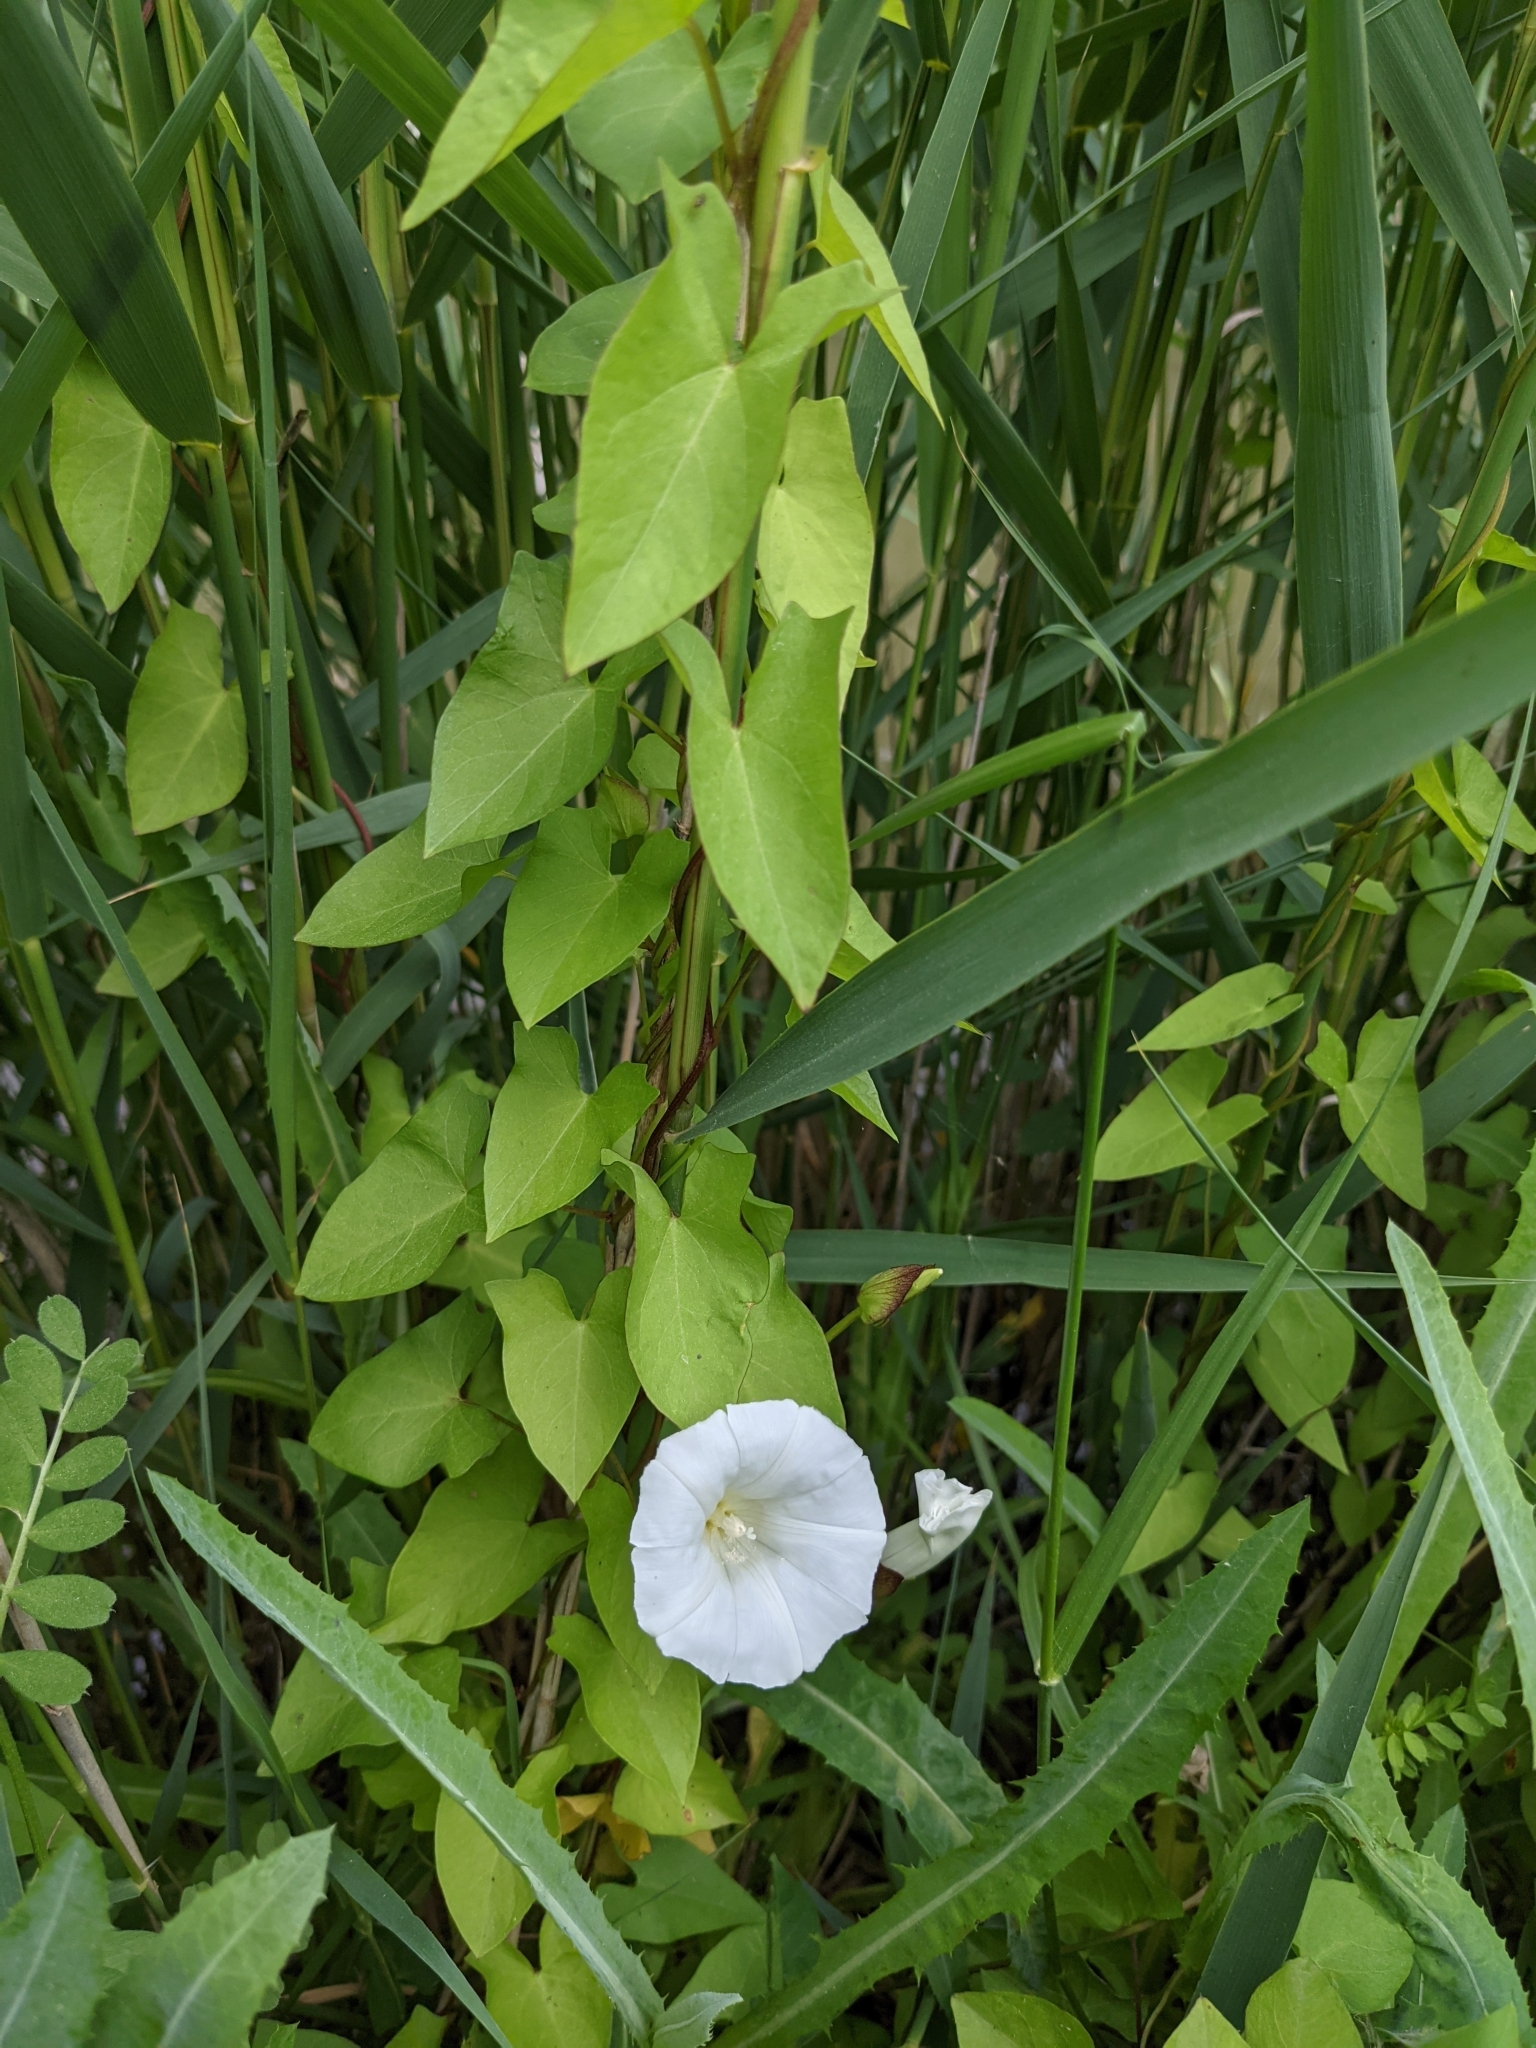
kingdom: Plantae
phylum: Tracheophyta
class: Magnoliopsida
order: Solanales
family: Convolvulaceae
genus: Calystegia
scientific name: Calystegia sepium
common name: Hedge bindweed
